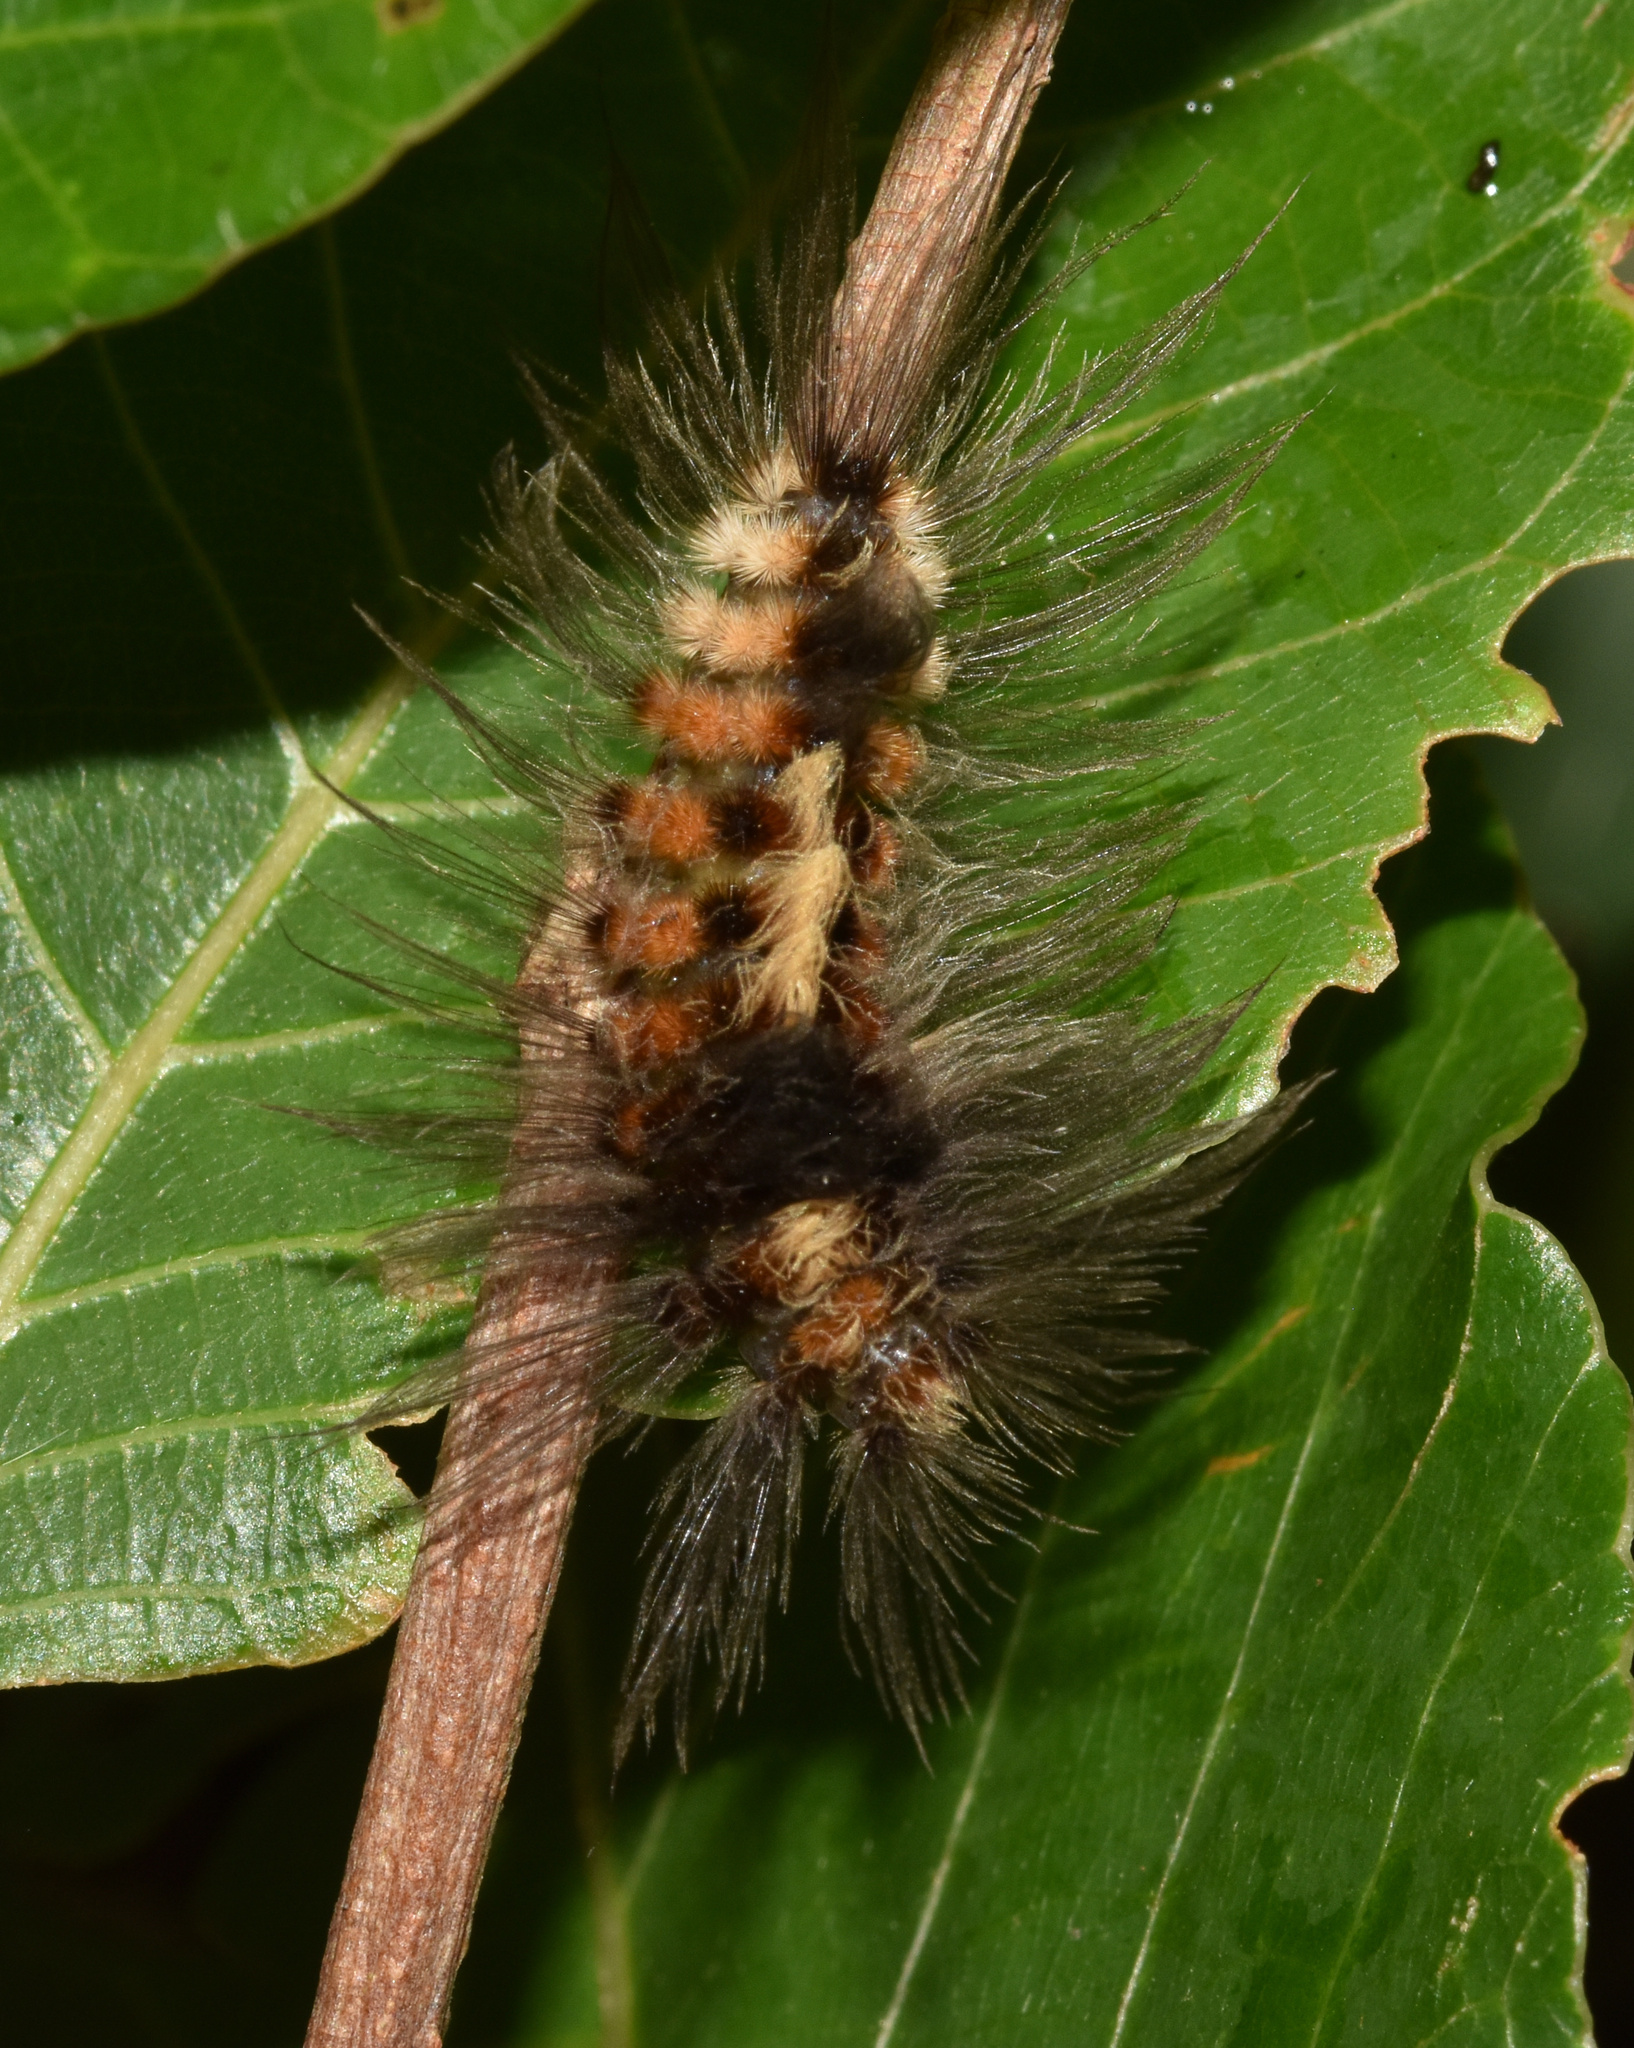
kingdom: Animalia
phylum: Arthropoda
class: Insecta
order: Lepidoptera
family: Erebidae
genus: Tumicla
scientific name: Tumicla sagenaria
